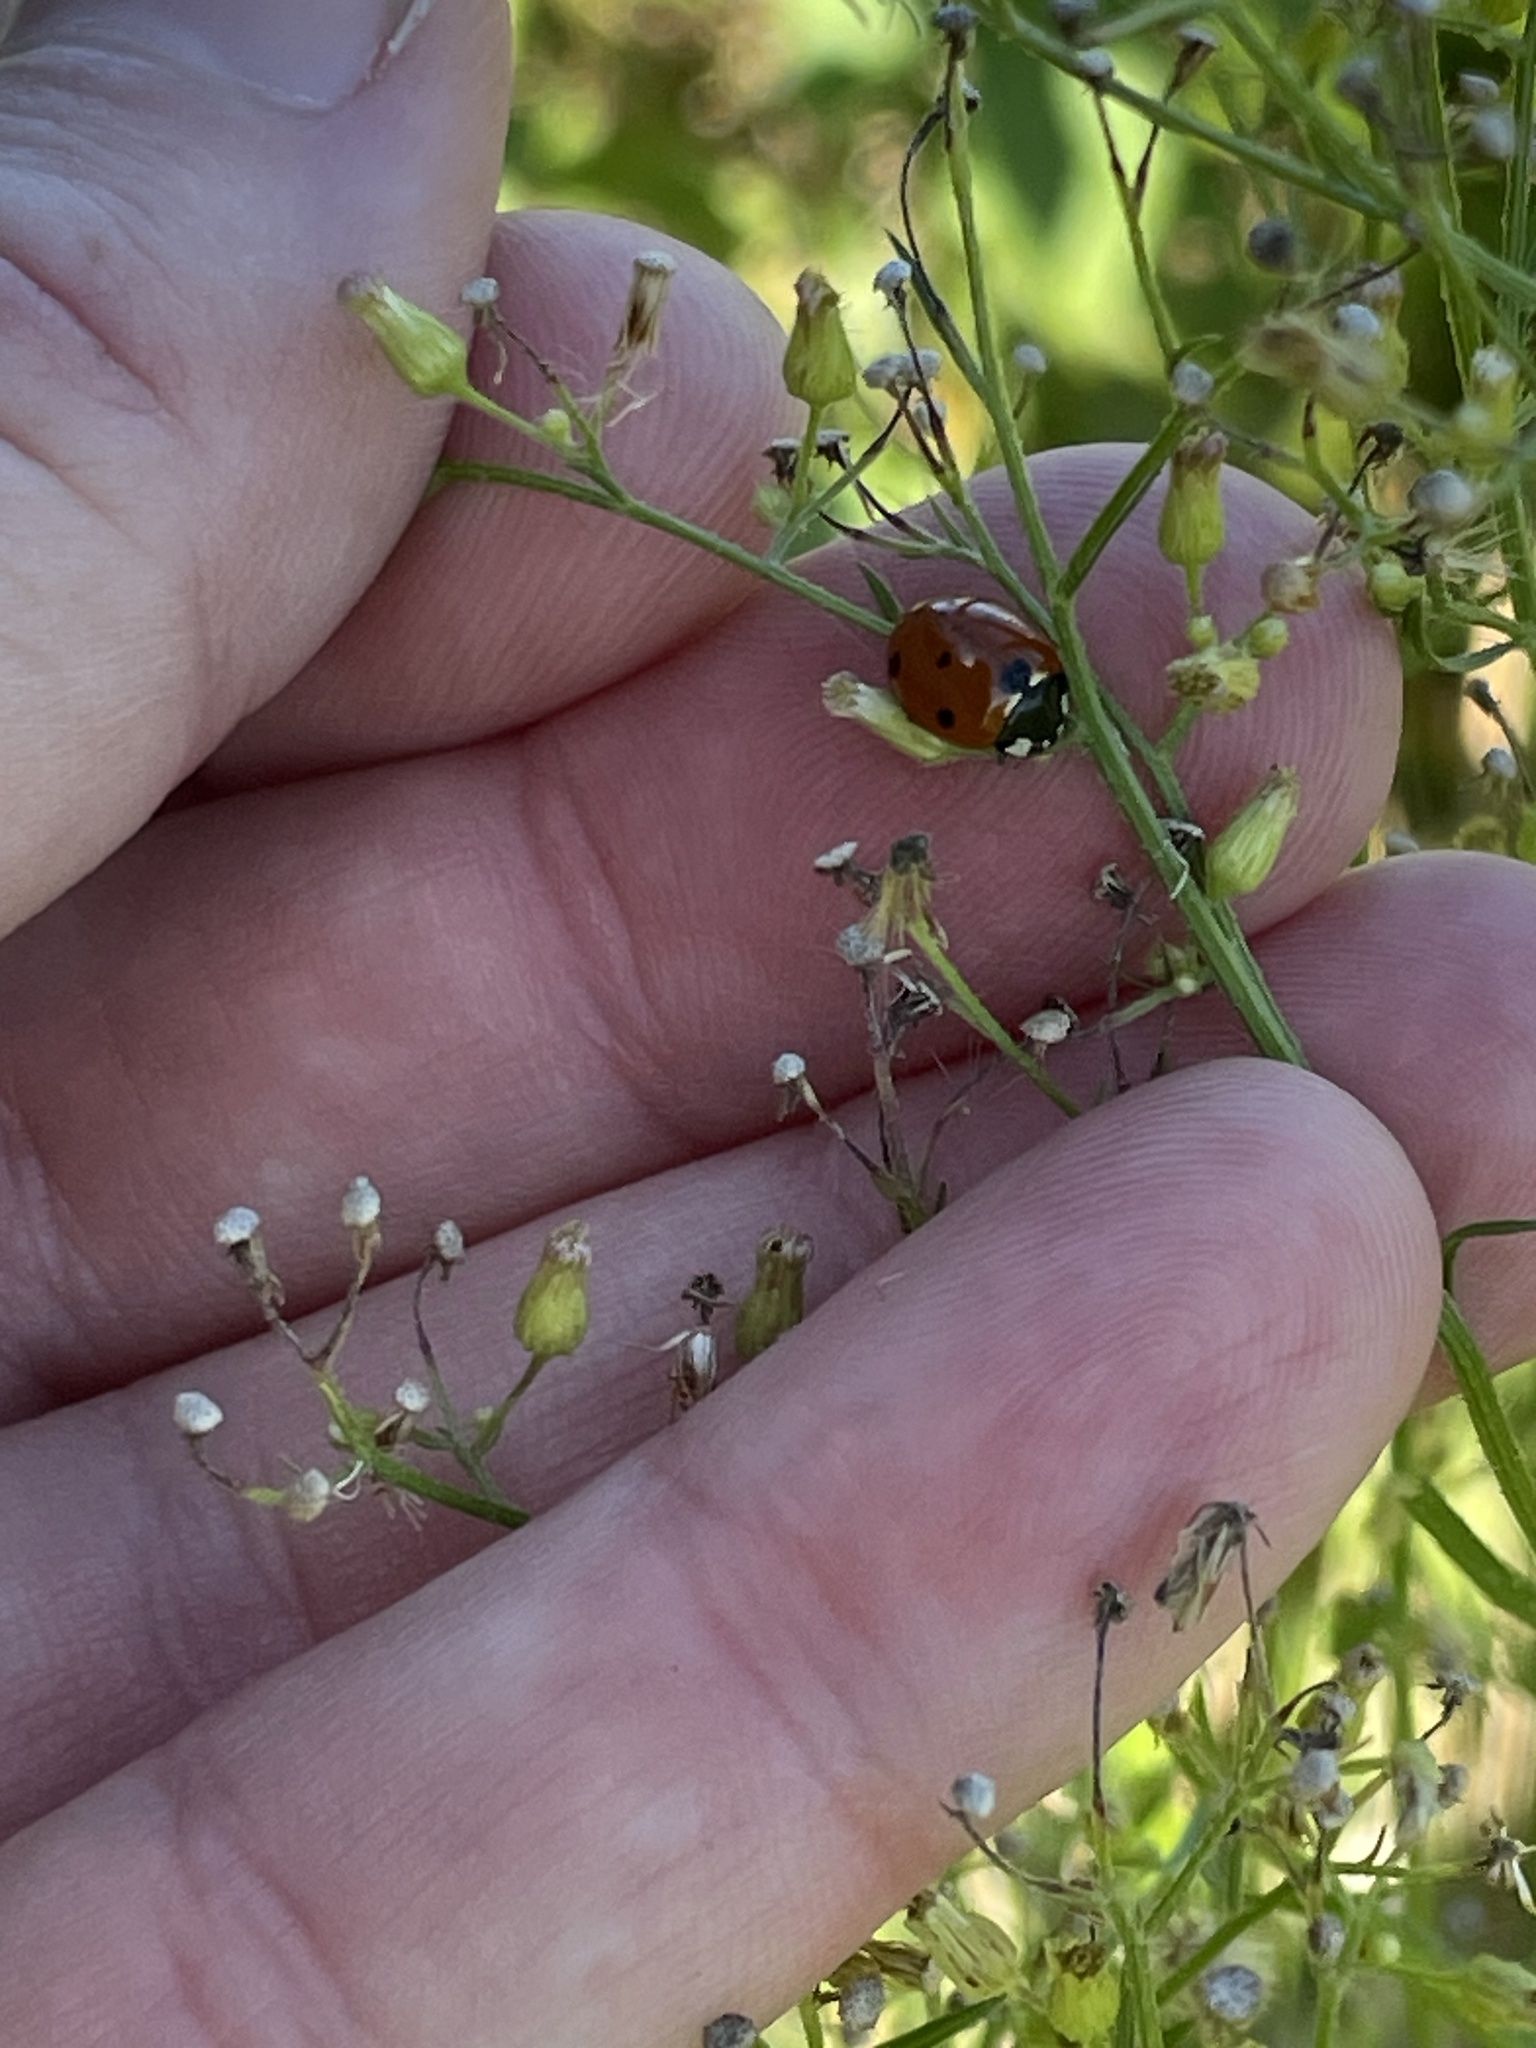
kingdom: Animalia
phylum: Arthropoda
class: Insecta
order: Coleoptera
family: Coccinellidae
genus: Coccinella
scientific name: Coccinella septempunctata
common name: Sevenspotted lady beetle
